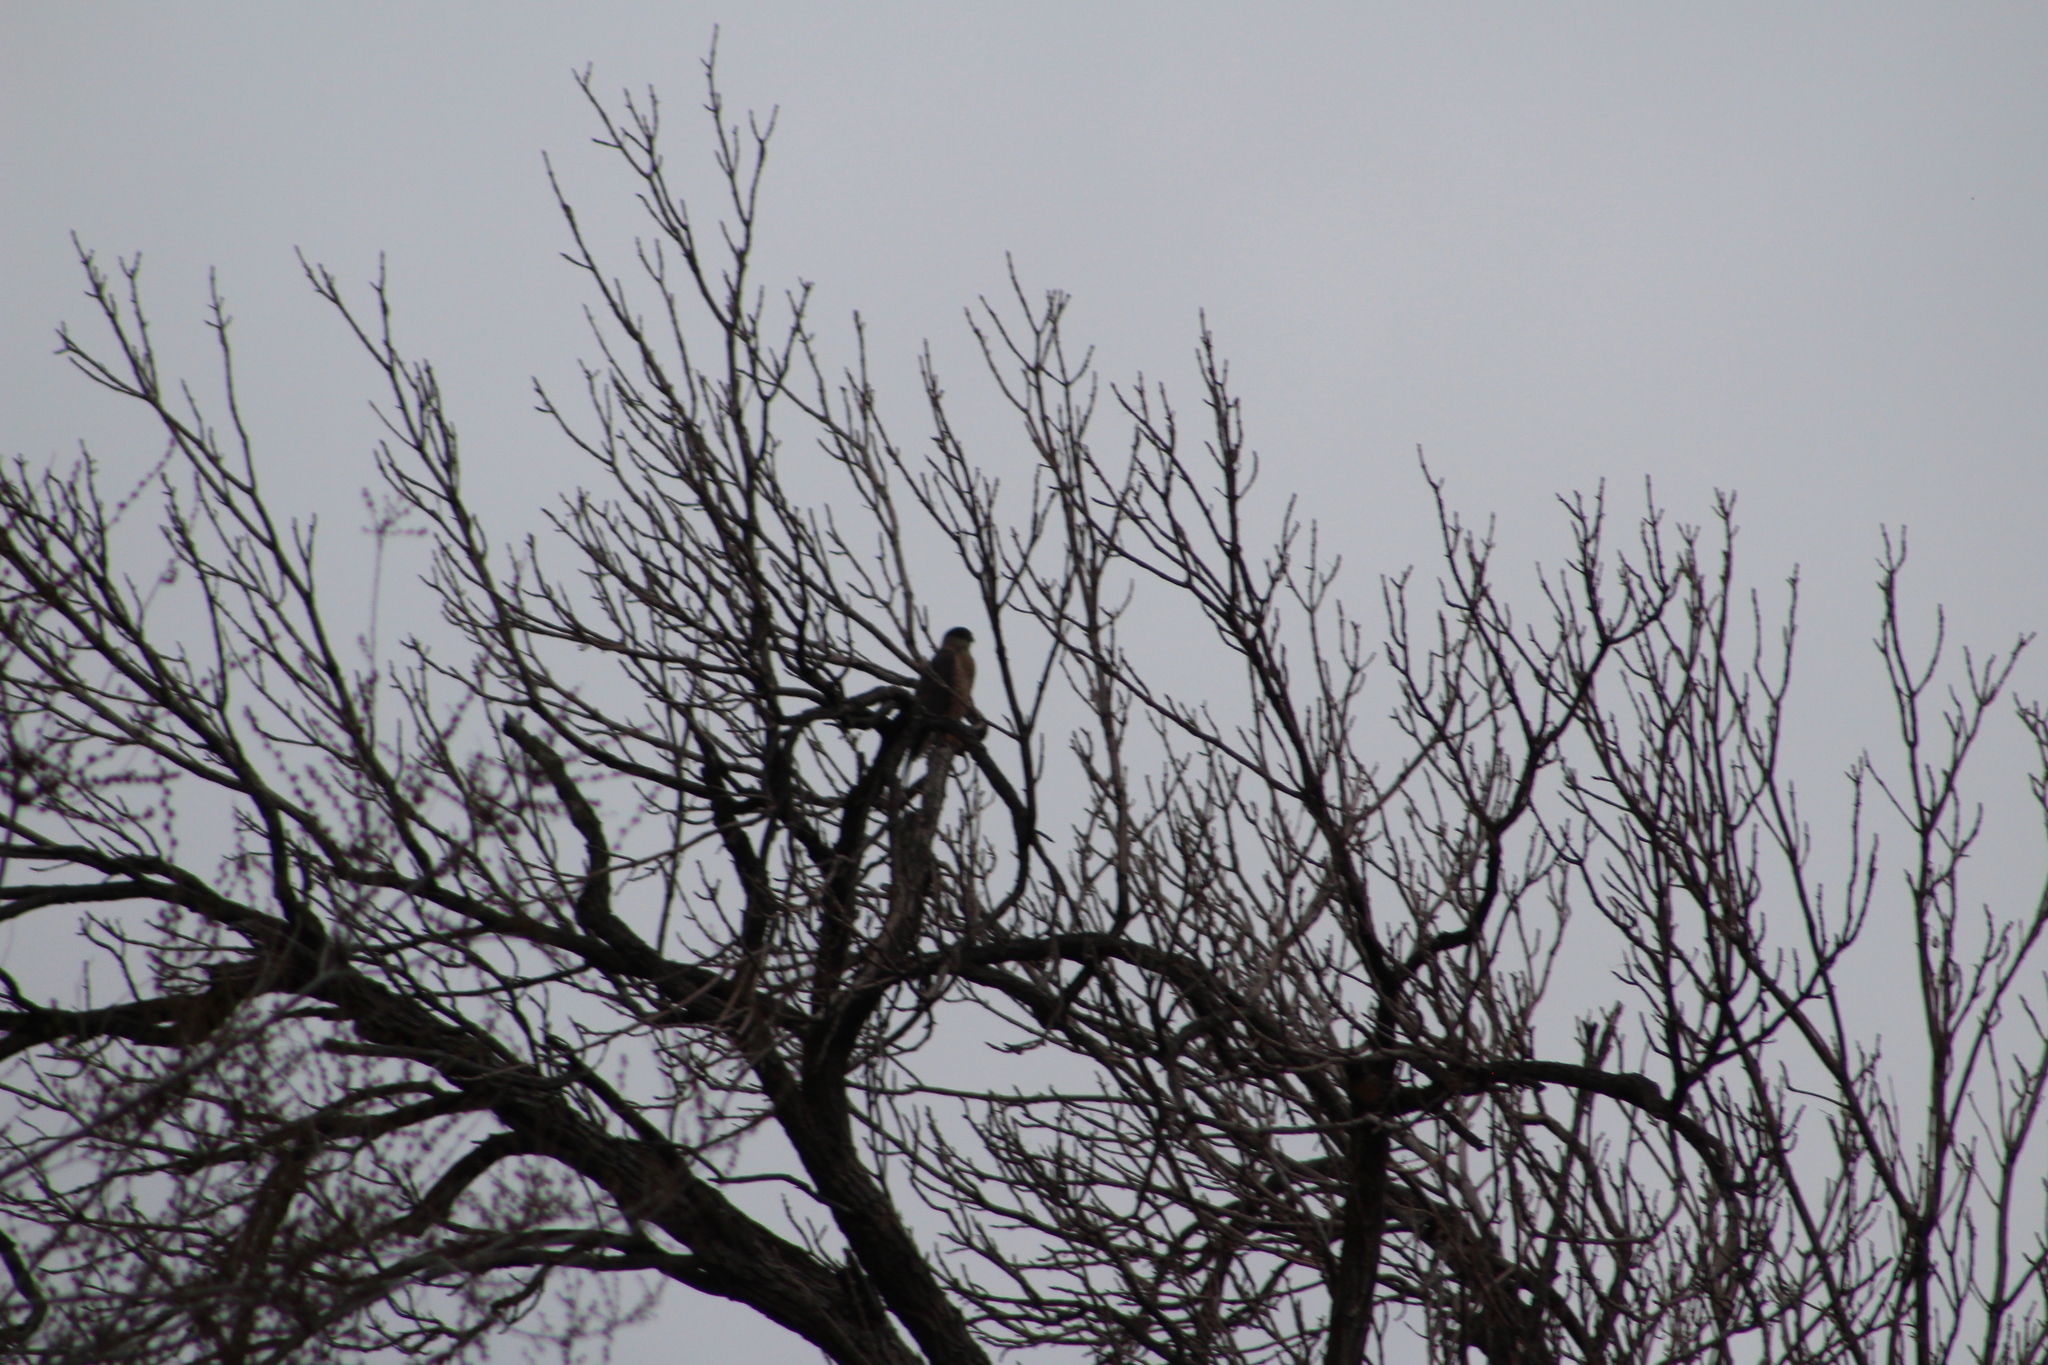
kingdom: Animalia
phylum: Chordata
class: Aves
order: Accipitriformes
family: Accipitridae
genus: Accipiter
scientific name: Accipiter cooperii
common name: Cooper's hawk
